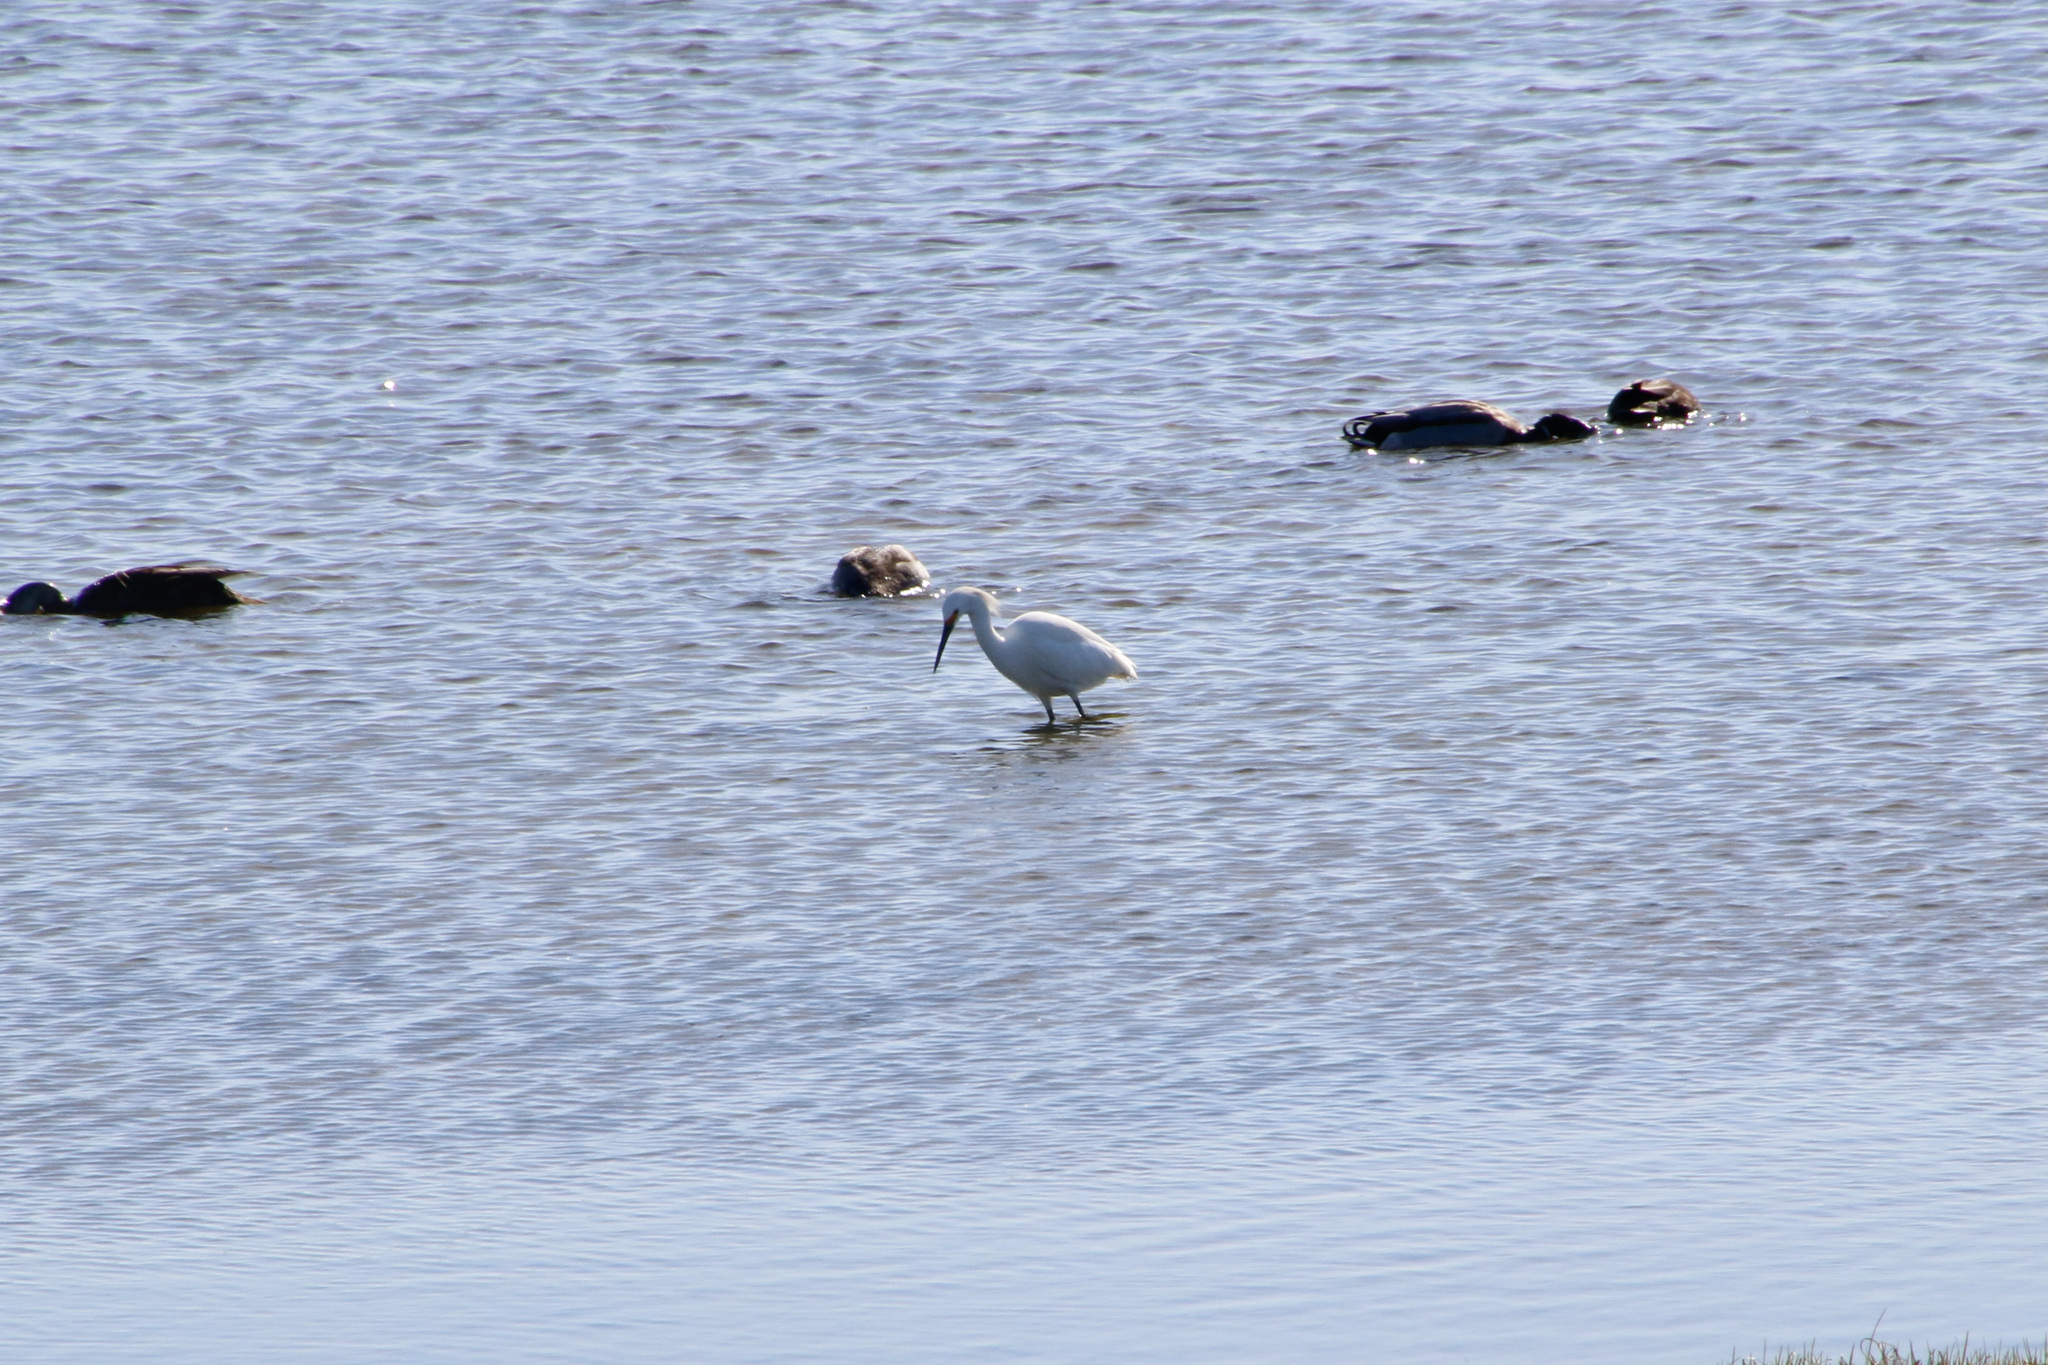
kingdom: Animalia
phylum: Chordata
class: Aves
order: Pelecaniformes
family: Ardeidae
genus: Egretta
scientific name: Egretta thula
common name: Snowy egret
